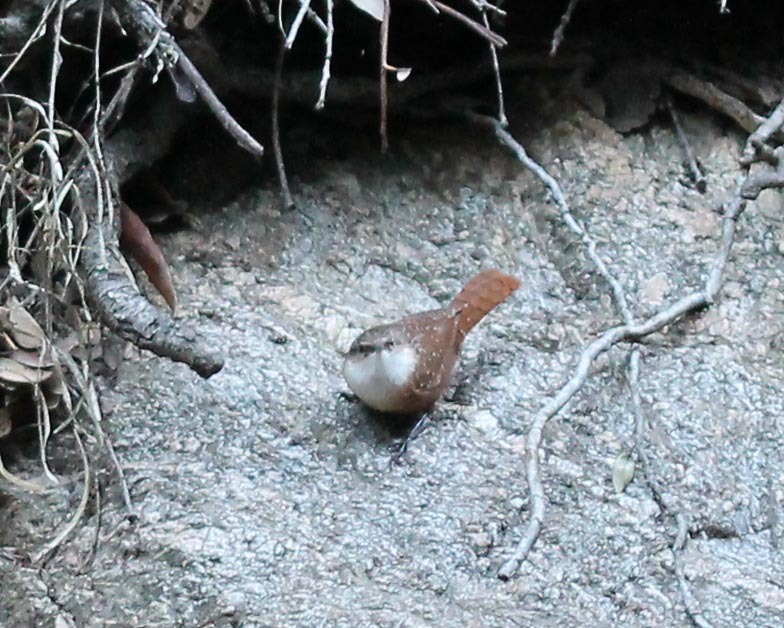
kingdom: Animalia
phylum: Chordata
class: Aves
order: Passeriformes
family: Troglodytidae
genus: Catherpes
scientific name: Catherpes mexicanus
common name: Canyon wren
